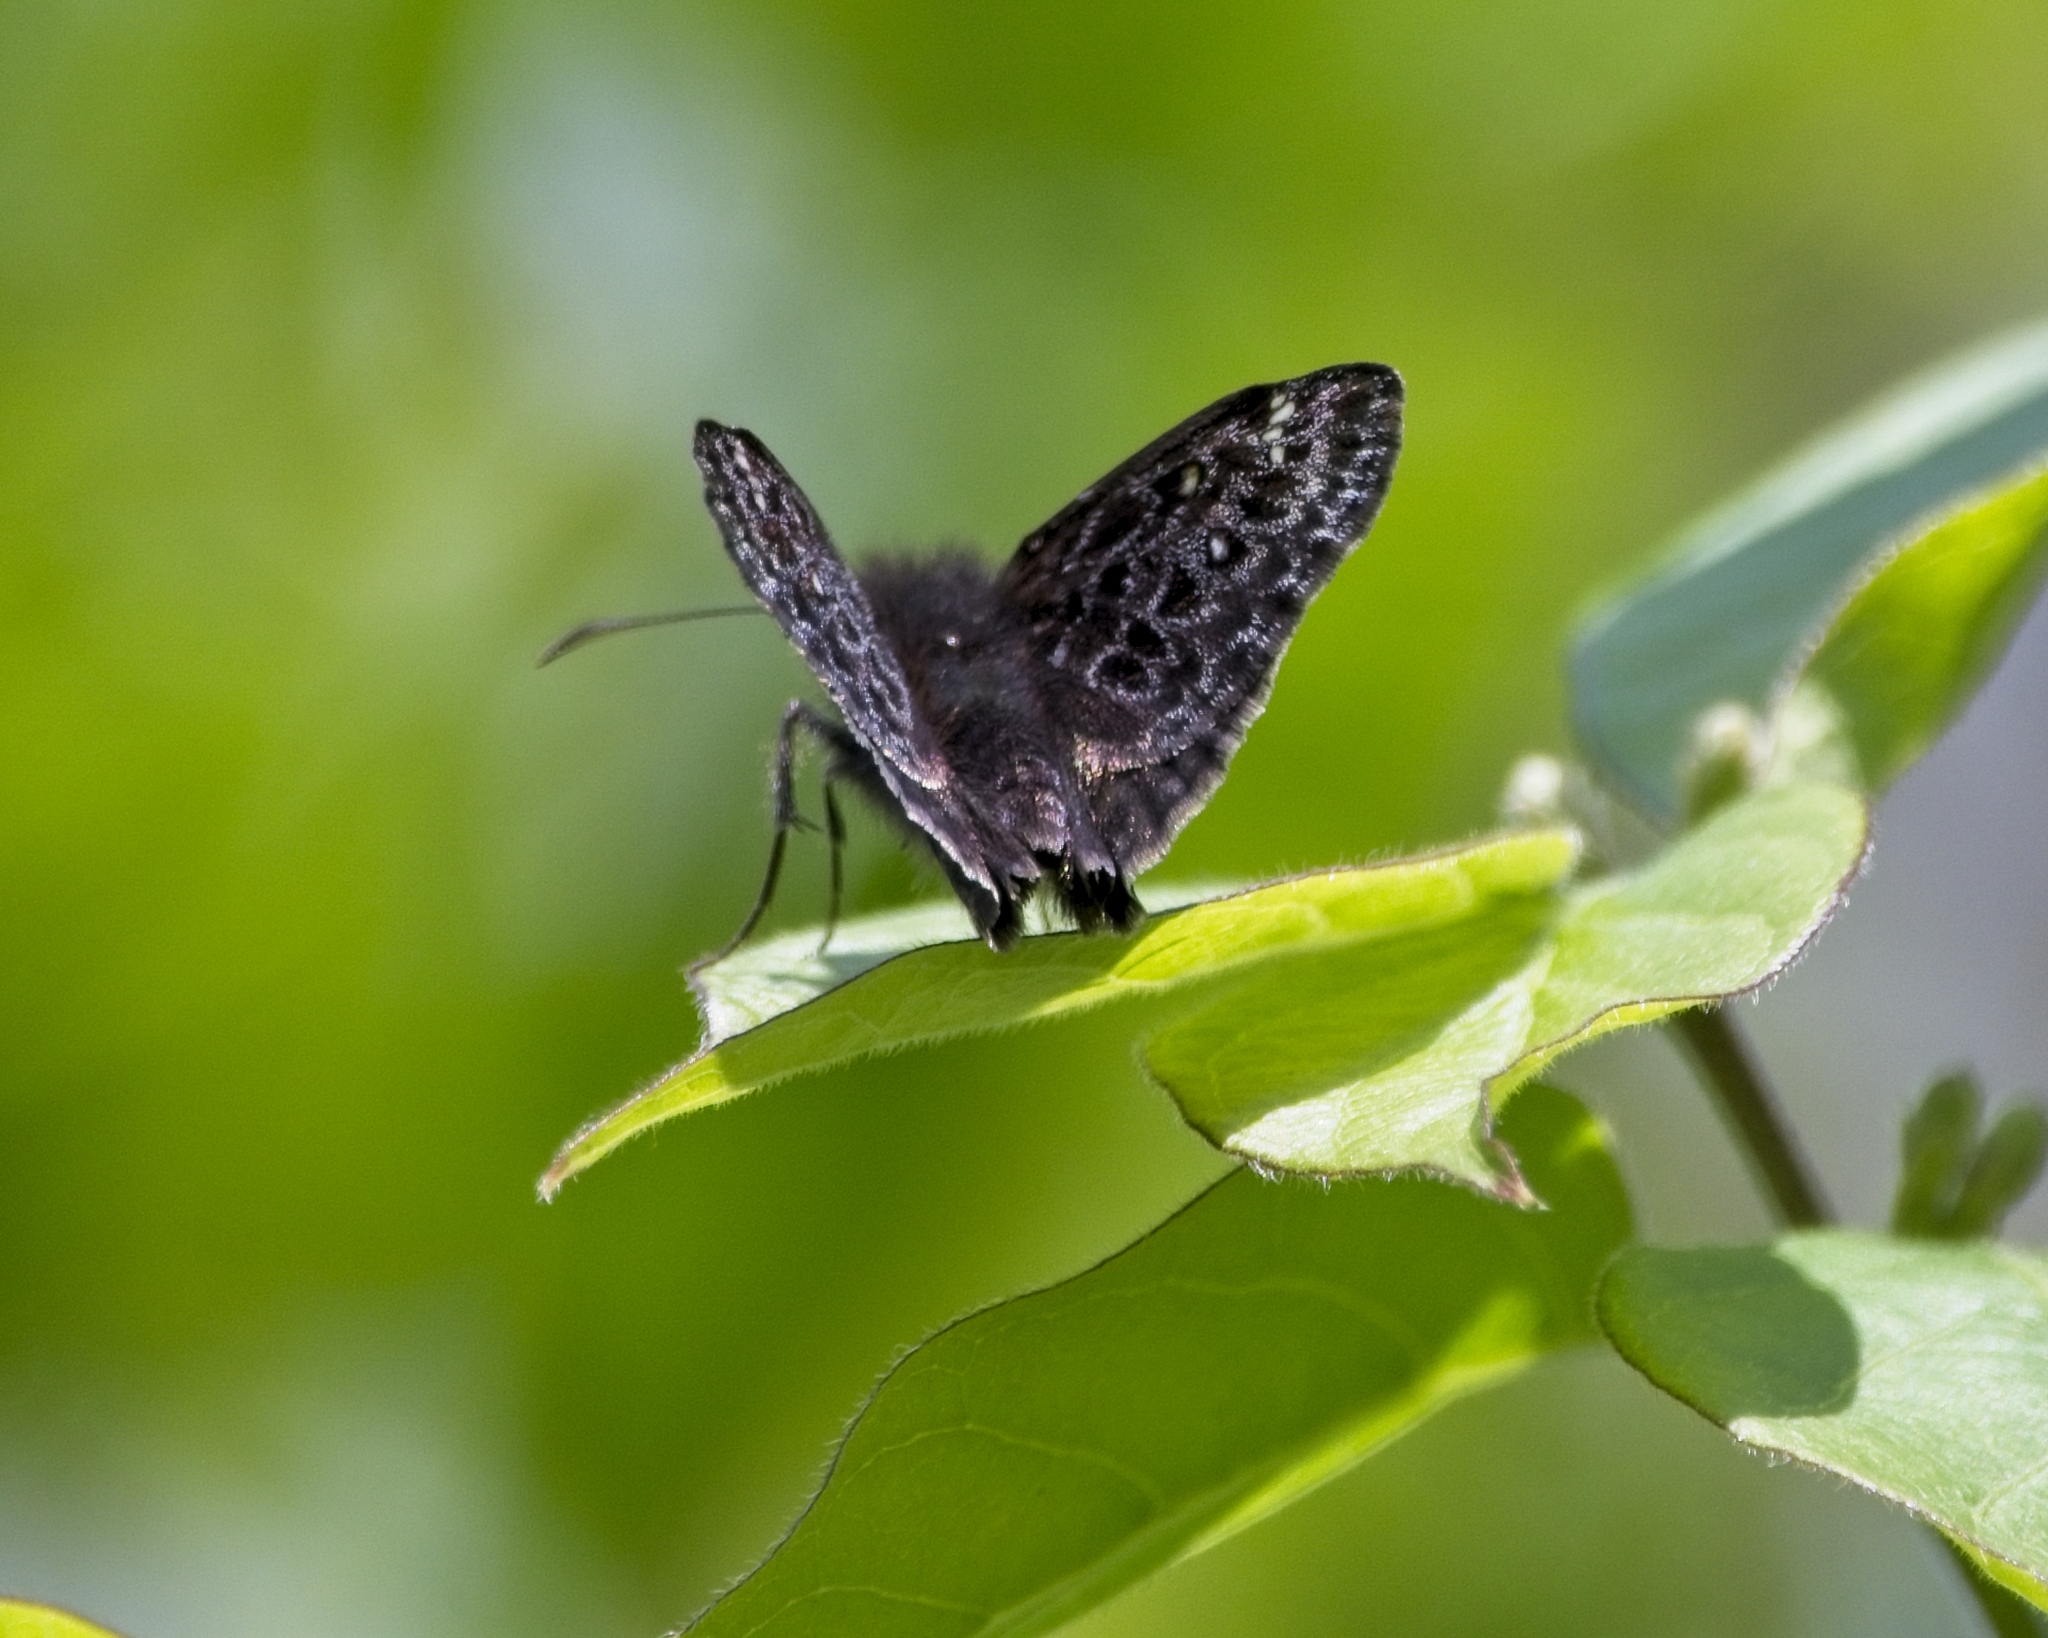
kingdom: Animalia
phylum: Arthropoda
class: Insecta
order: Lepidoptera
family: Hesperiidae
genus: Erynnis
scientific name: Erynnis juvenalis
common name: Juvenal's duskywing
